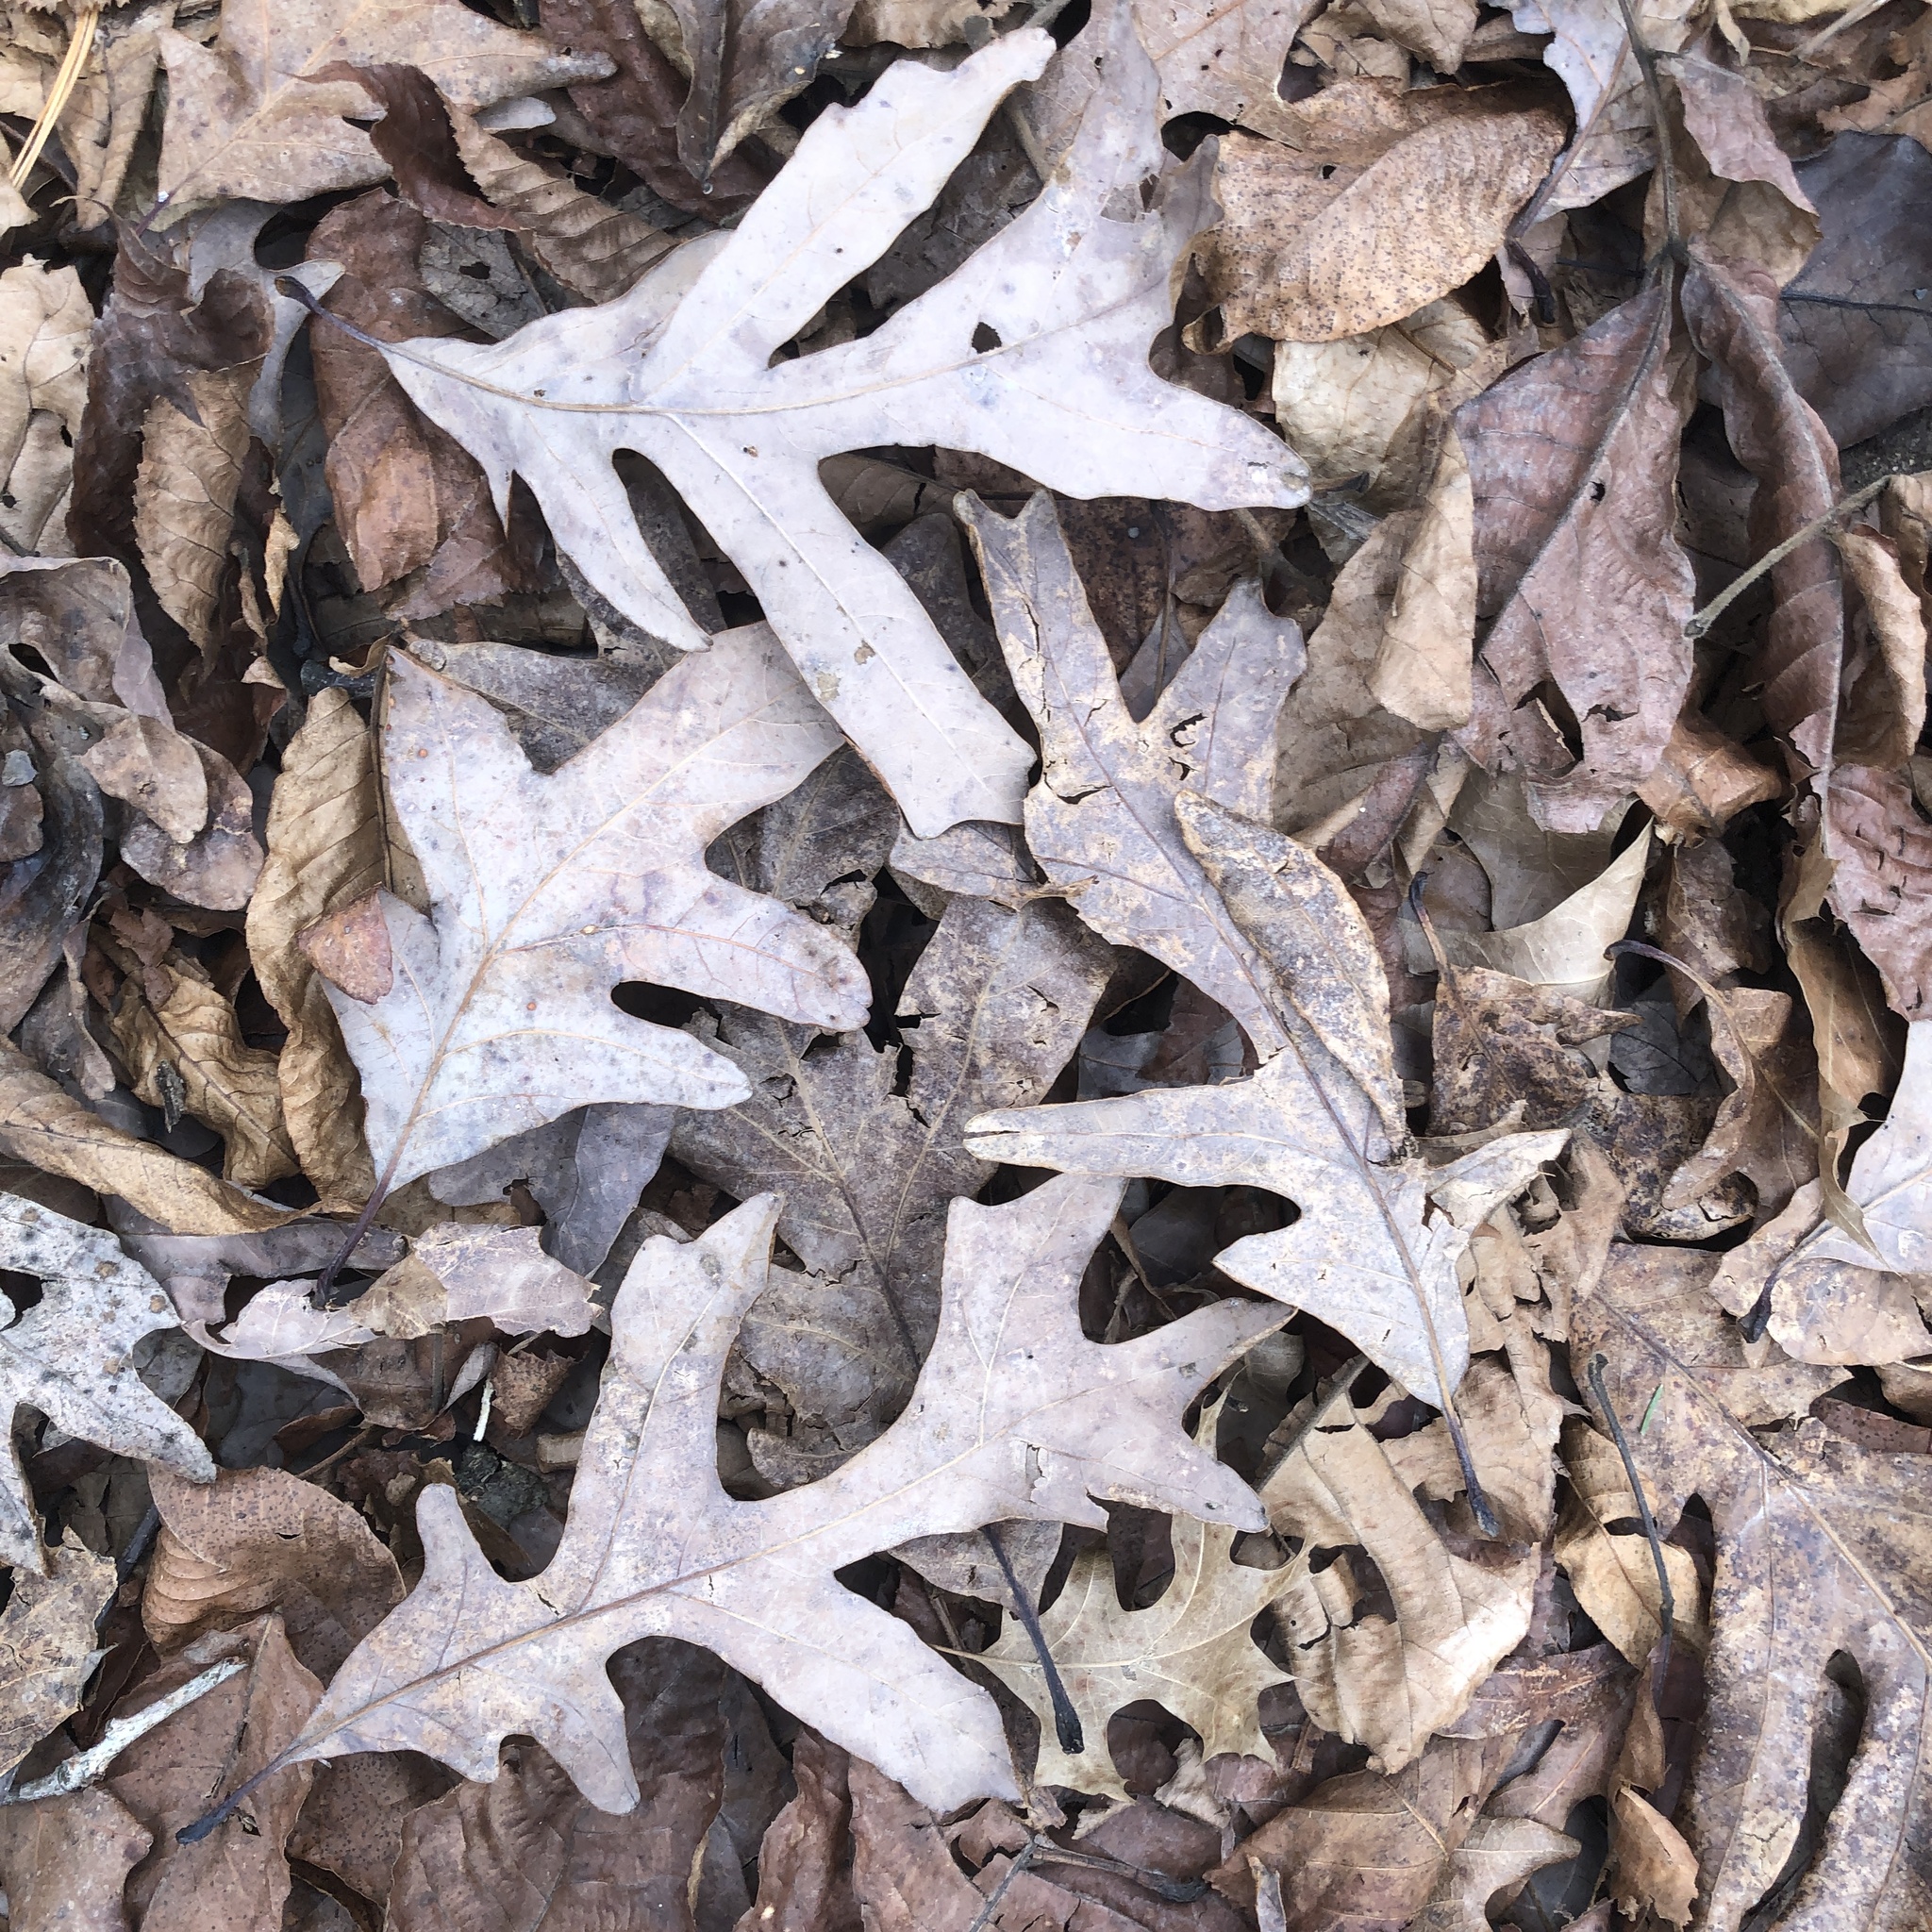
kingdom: Plantae
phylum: Tracheophyta
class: Magnoliopsida
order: Fagales
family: Fagaceae
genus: Quercus
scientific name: Quercus alba
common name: White oak
